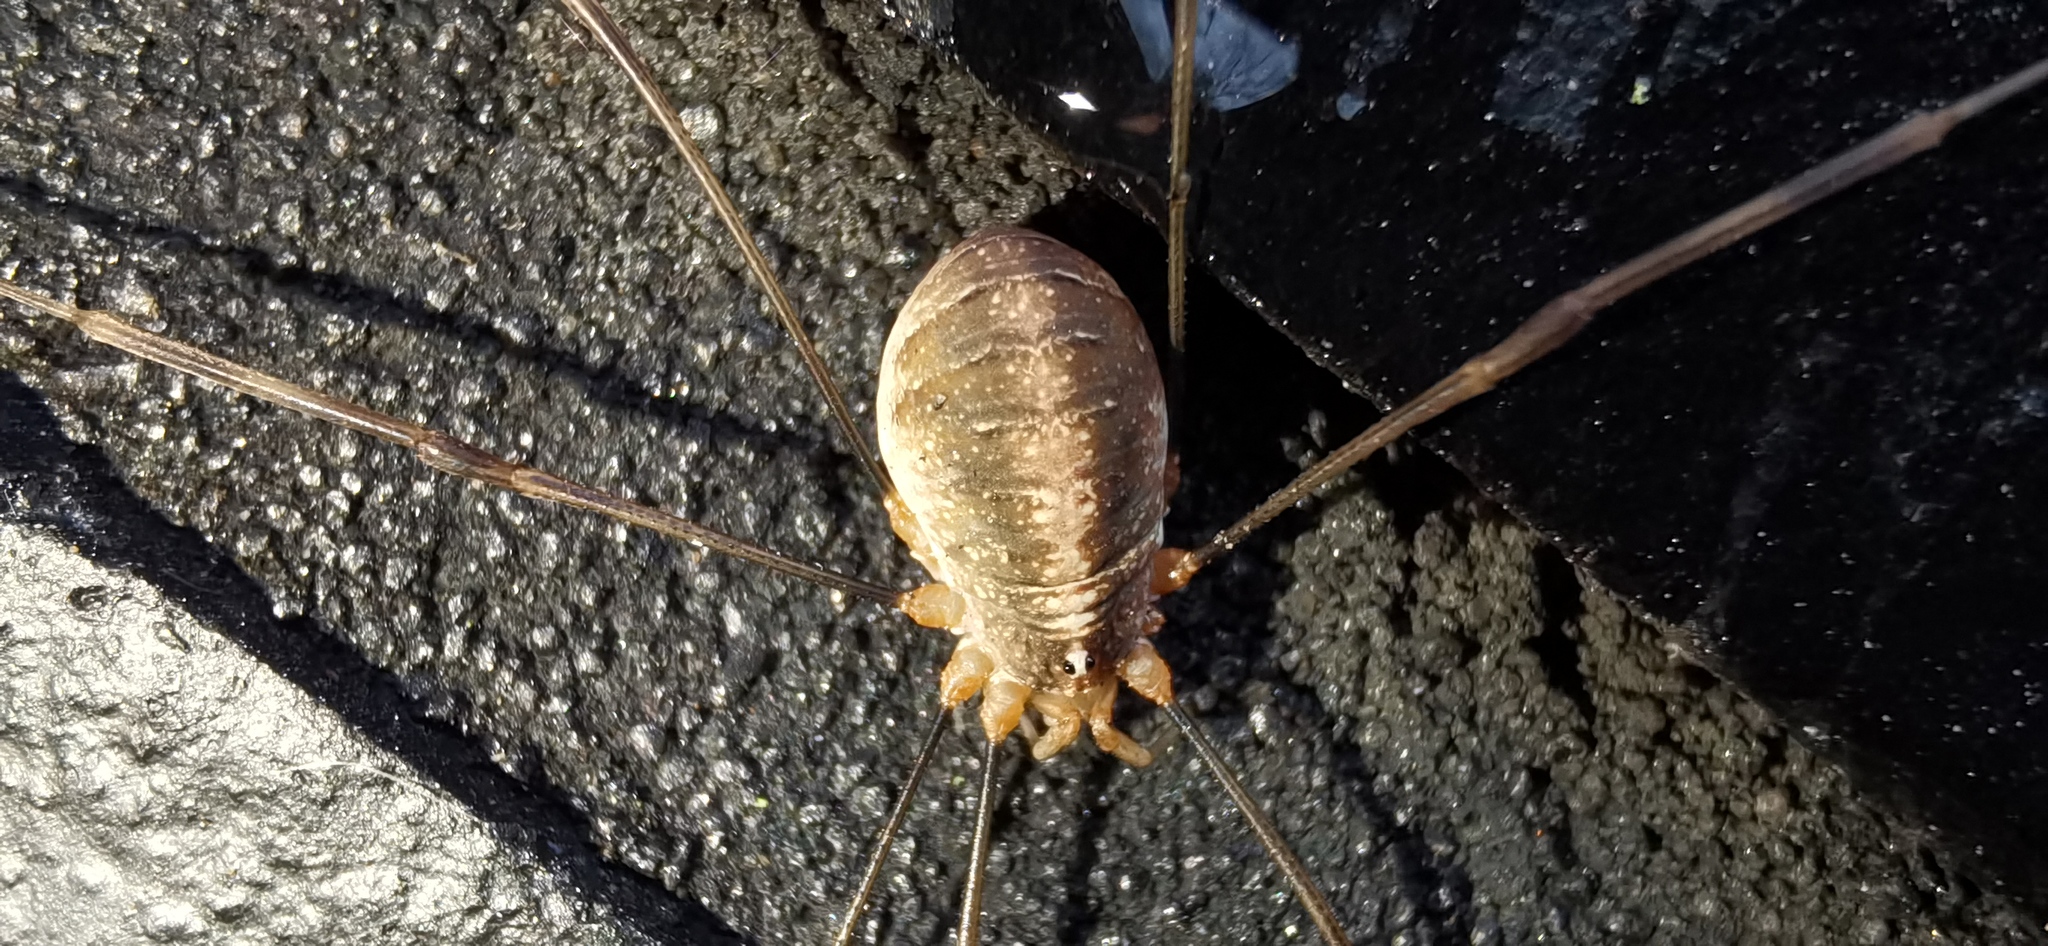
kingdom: Animalia
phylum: Arthropoda
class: Arachnida
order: Opiliones
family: Phalangiidae
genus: Opilio
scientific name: Opilio canestrinii
